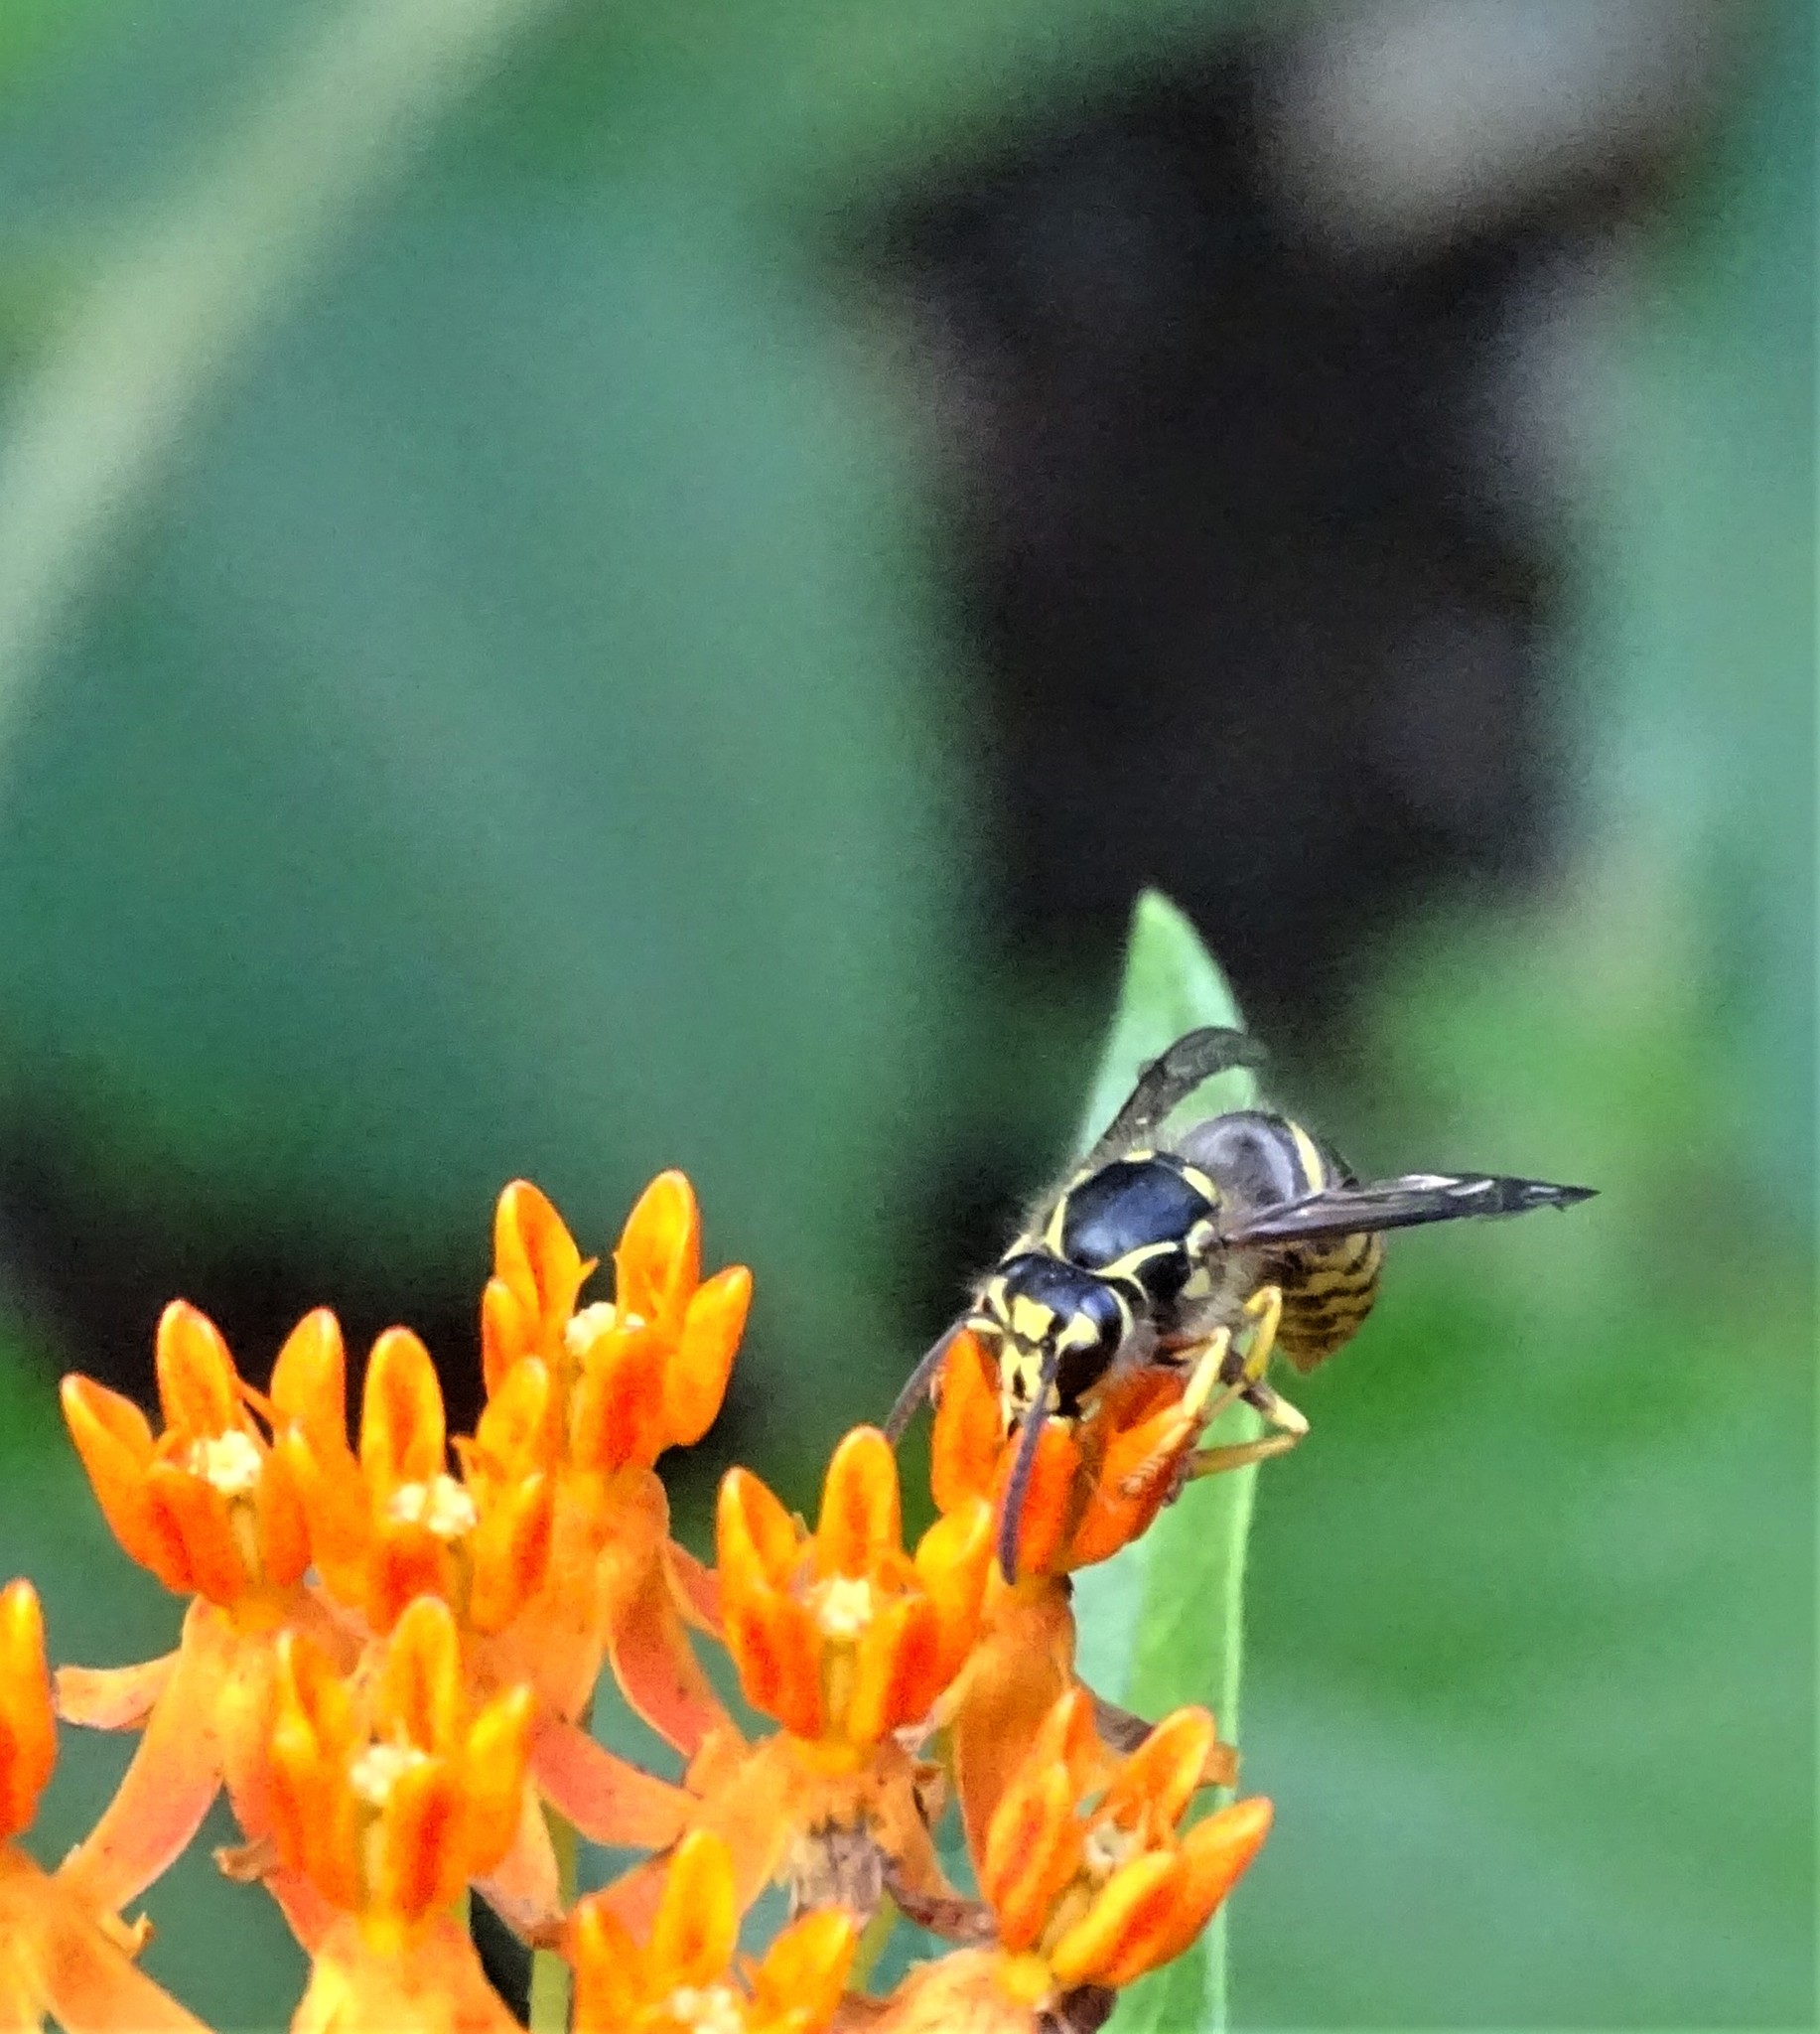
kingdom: Animalia
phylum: Arthropoda
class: Insecta
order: Hymenoptera
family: Vespidae
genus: Dolichovespula
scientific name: Dolichovespula arenaria
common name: Aerial yellowjacket
